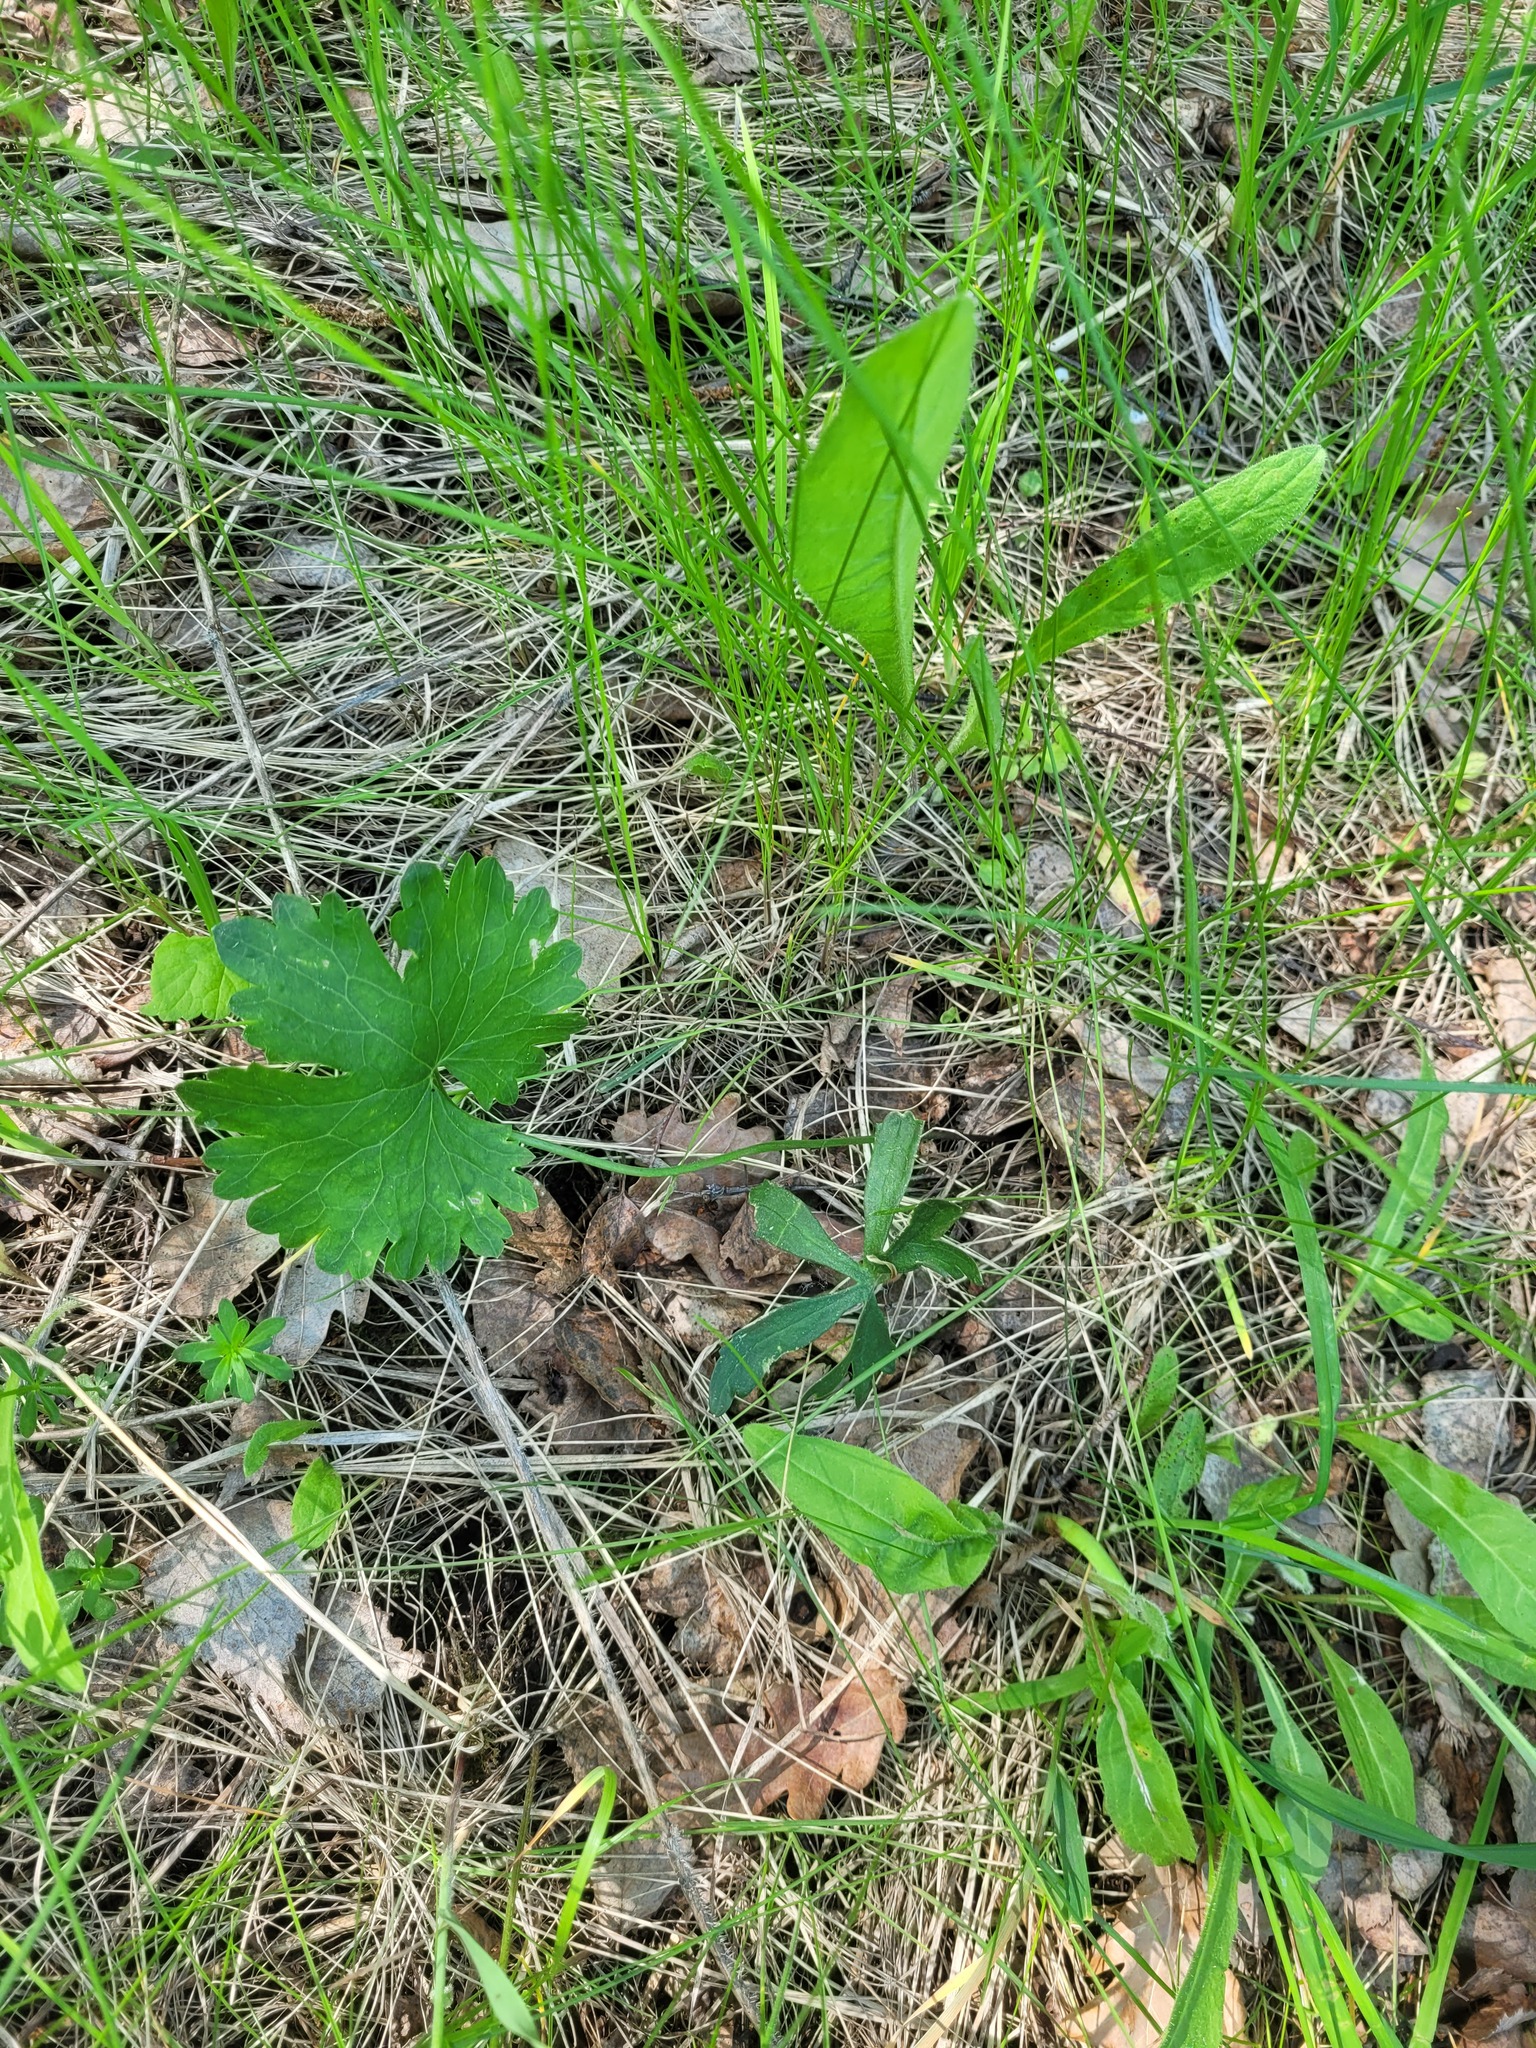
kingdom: Plantae
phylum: Tracheophyta
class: Magnoliopsida
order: Ranunculales
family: Ranunculaceae
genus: Ranunculus
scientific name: Ranunculus auricomus
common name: Goldilocks buttercup
